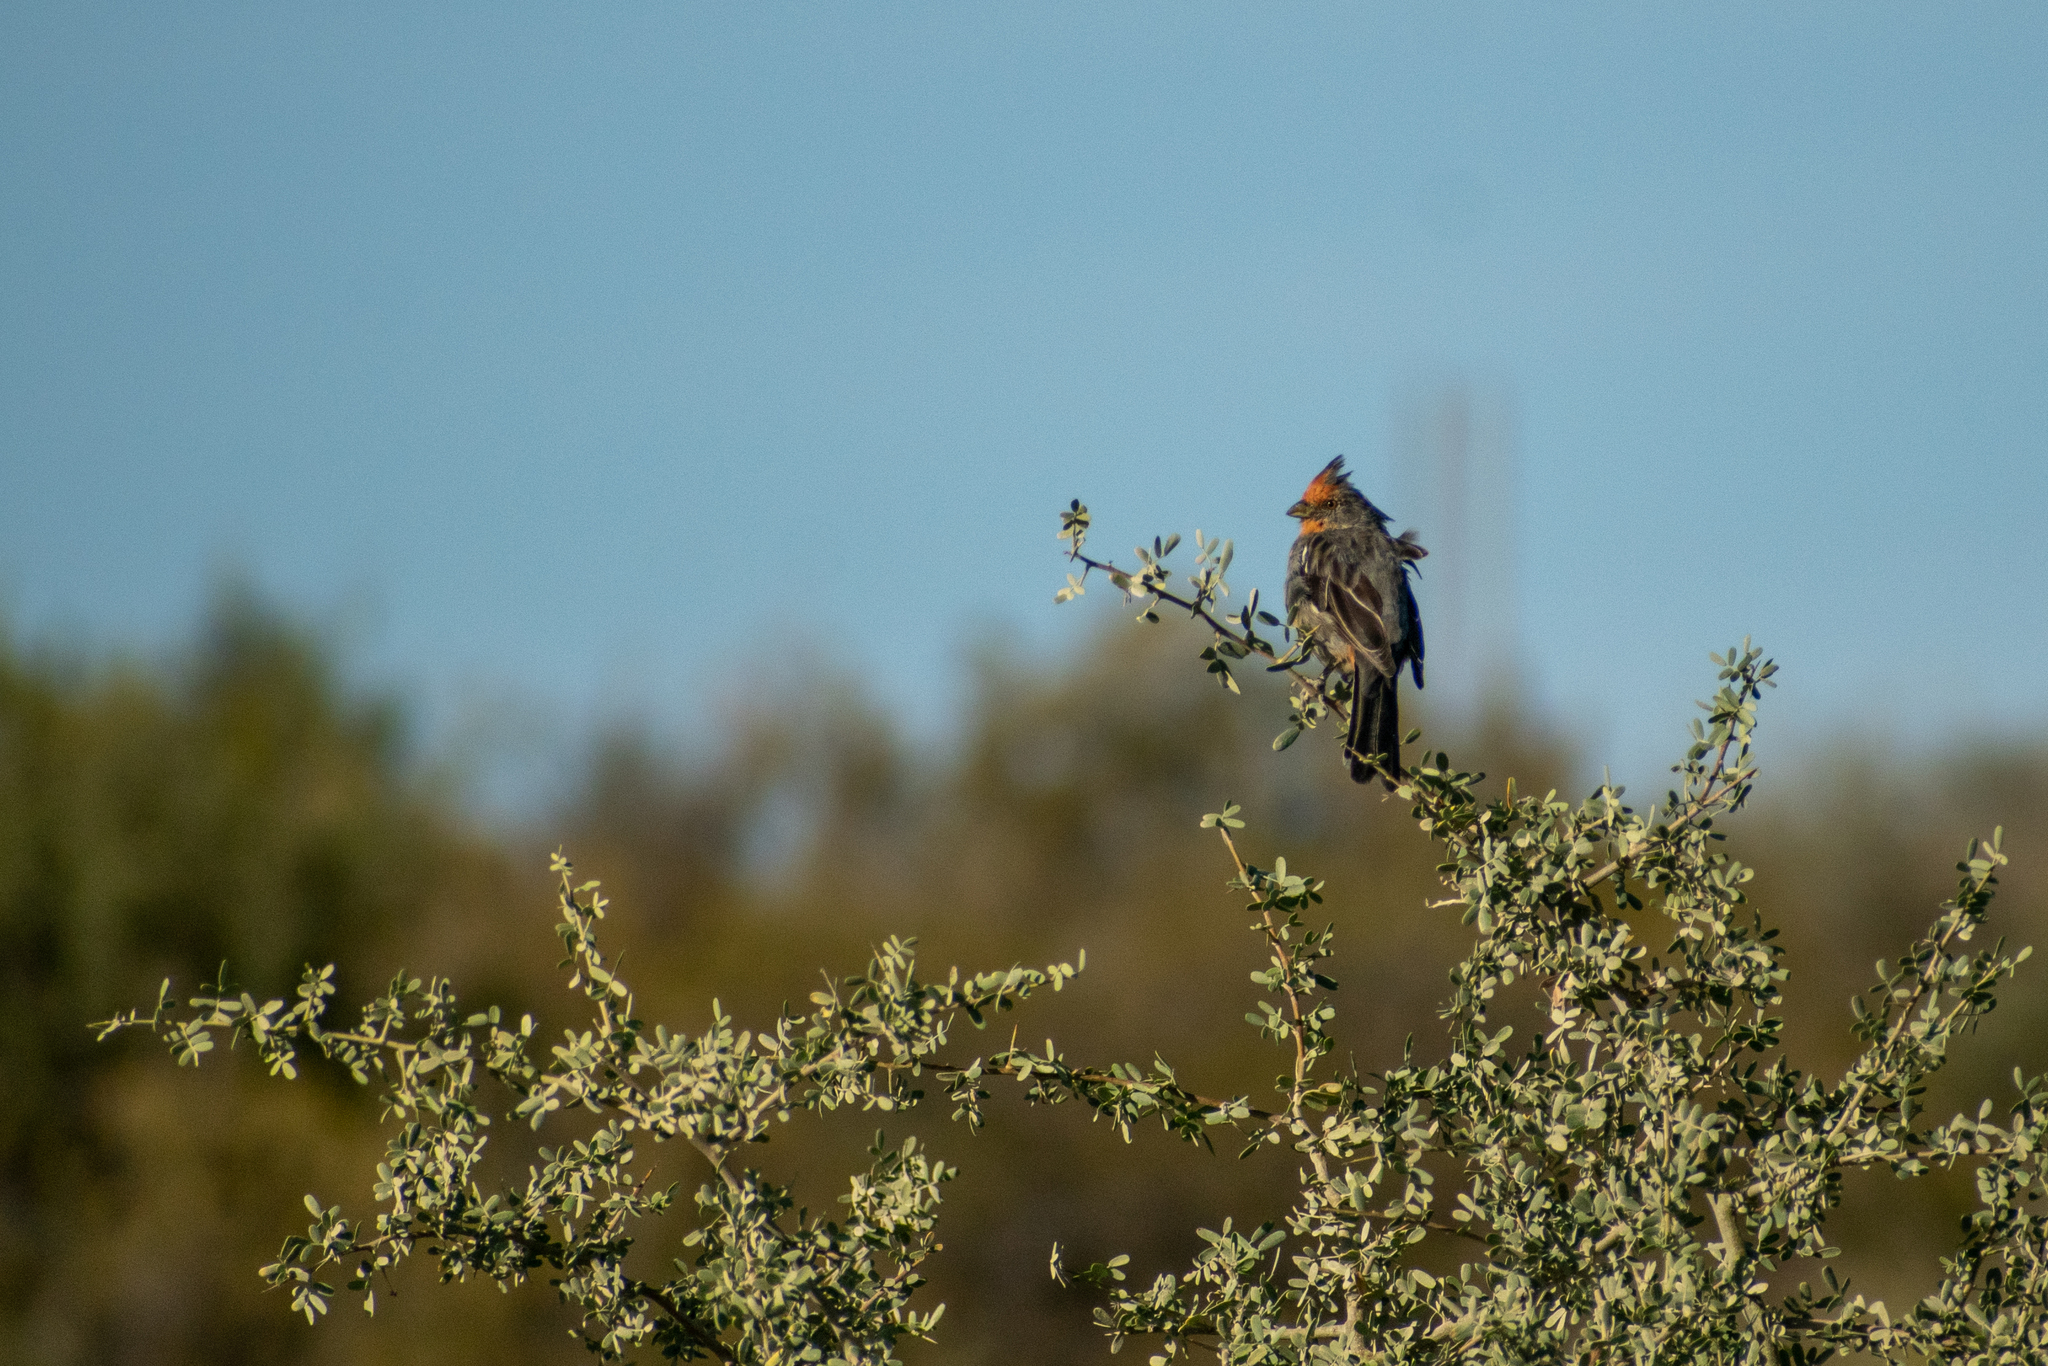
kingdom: Animalia
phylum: Chordata
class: Aves
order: Passeriformes
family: Cotingidae
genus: Phytotoma
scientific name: Phytotoma rutila
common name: White-tipped plantcutter
